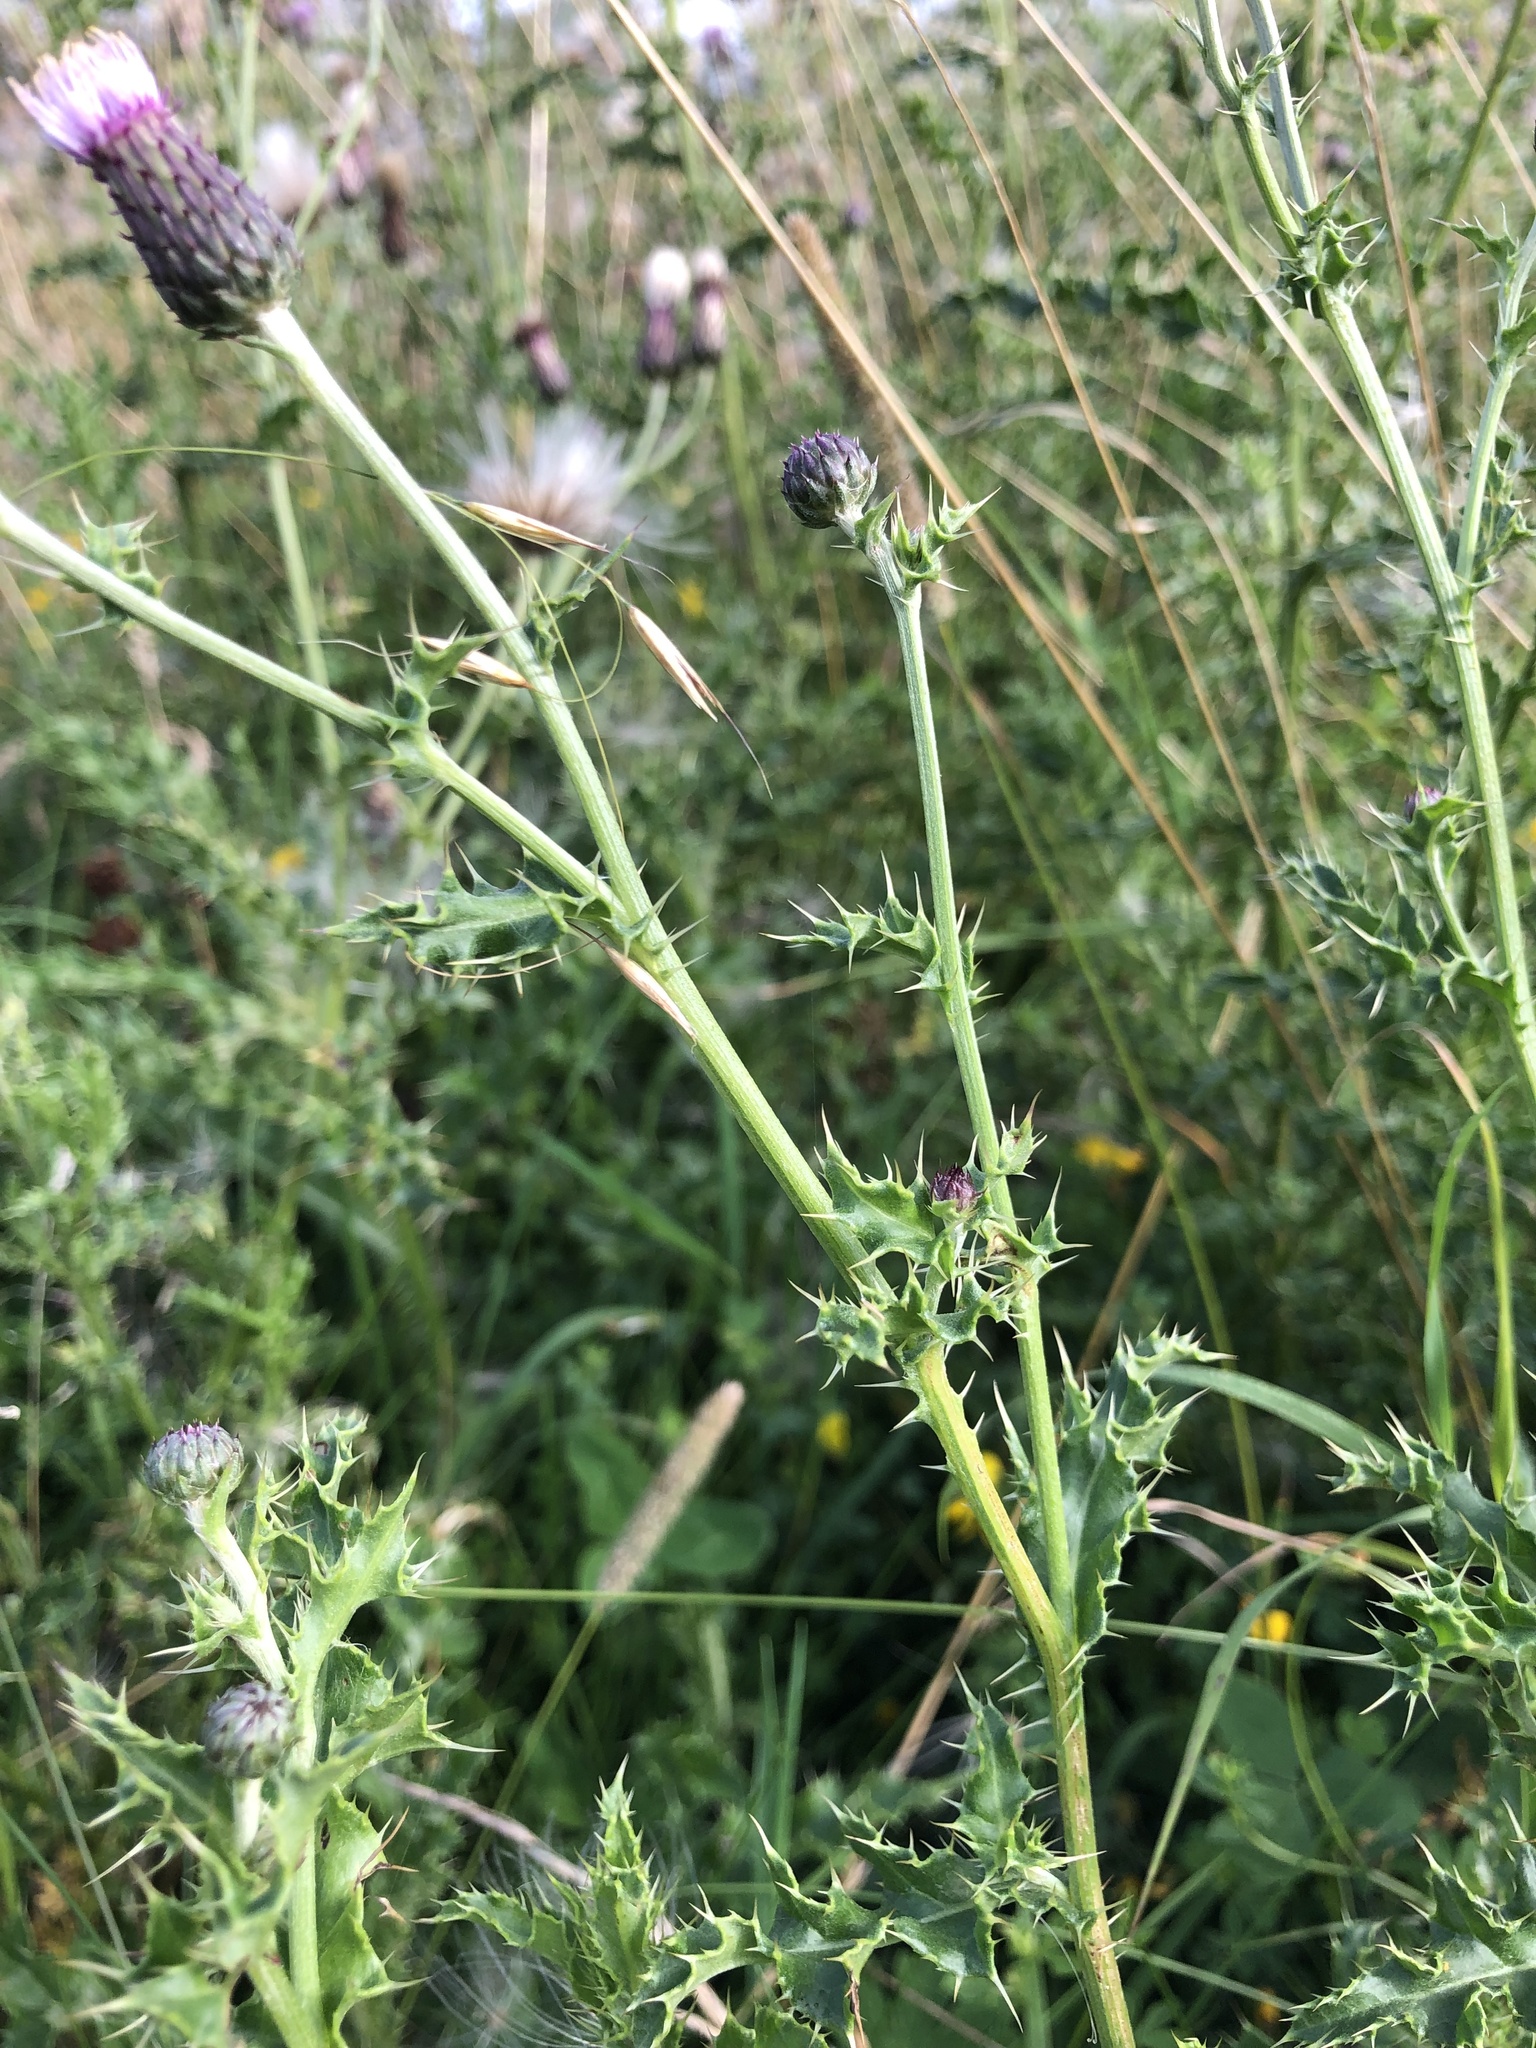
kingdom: Plantae
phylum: Tracheophyta
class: Magnoliopsida
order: Asterales
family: Asteraceae
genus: Cirsium
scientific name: Cirsium arvense
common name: Creeping thistle
